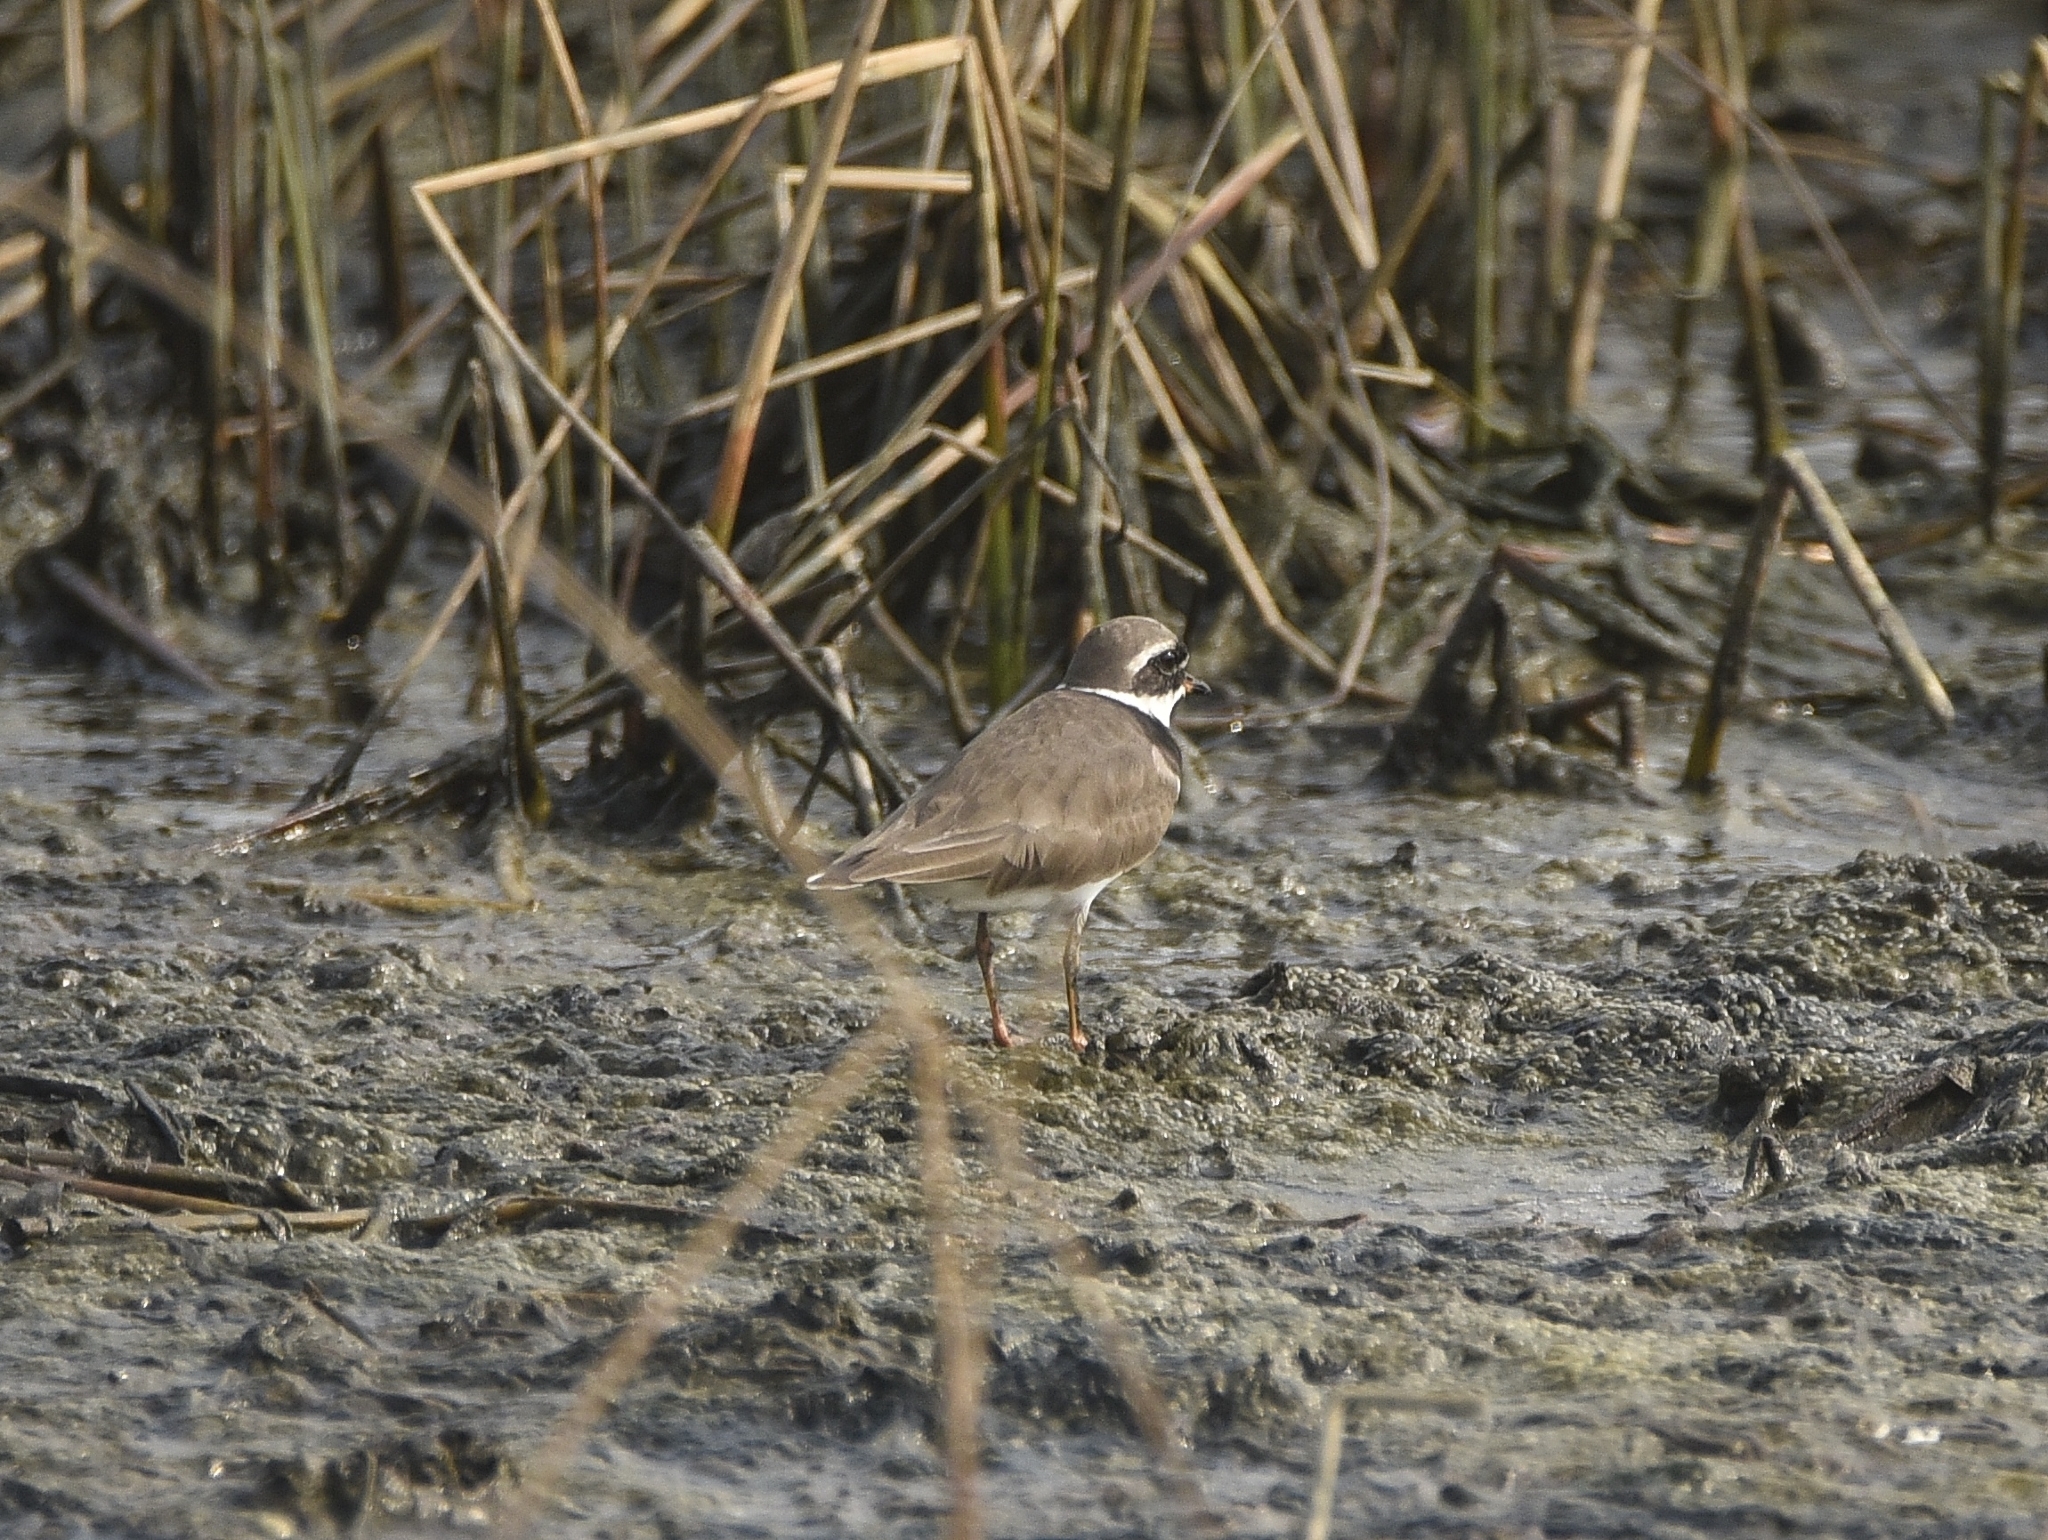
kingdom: Animalia
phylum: Chordata
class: Aves
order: Charadriiformes
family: Charadriidae
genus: Charadrius
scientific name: Charadrius hiaticula
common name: Common ringed plover
